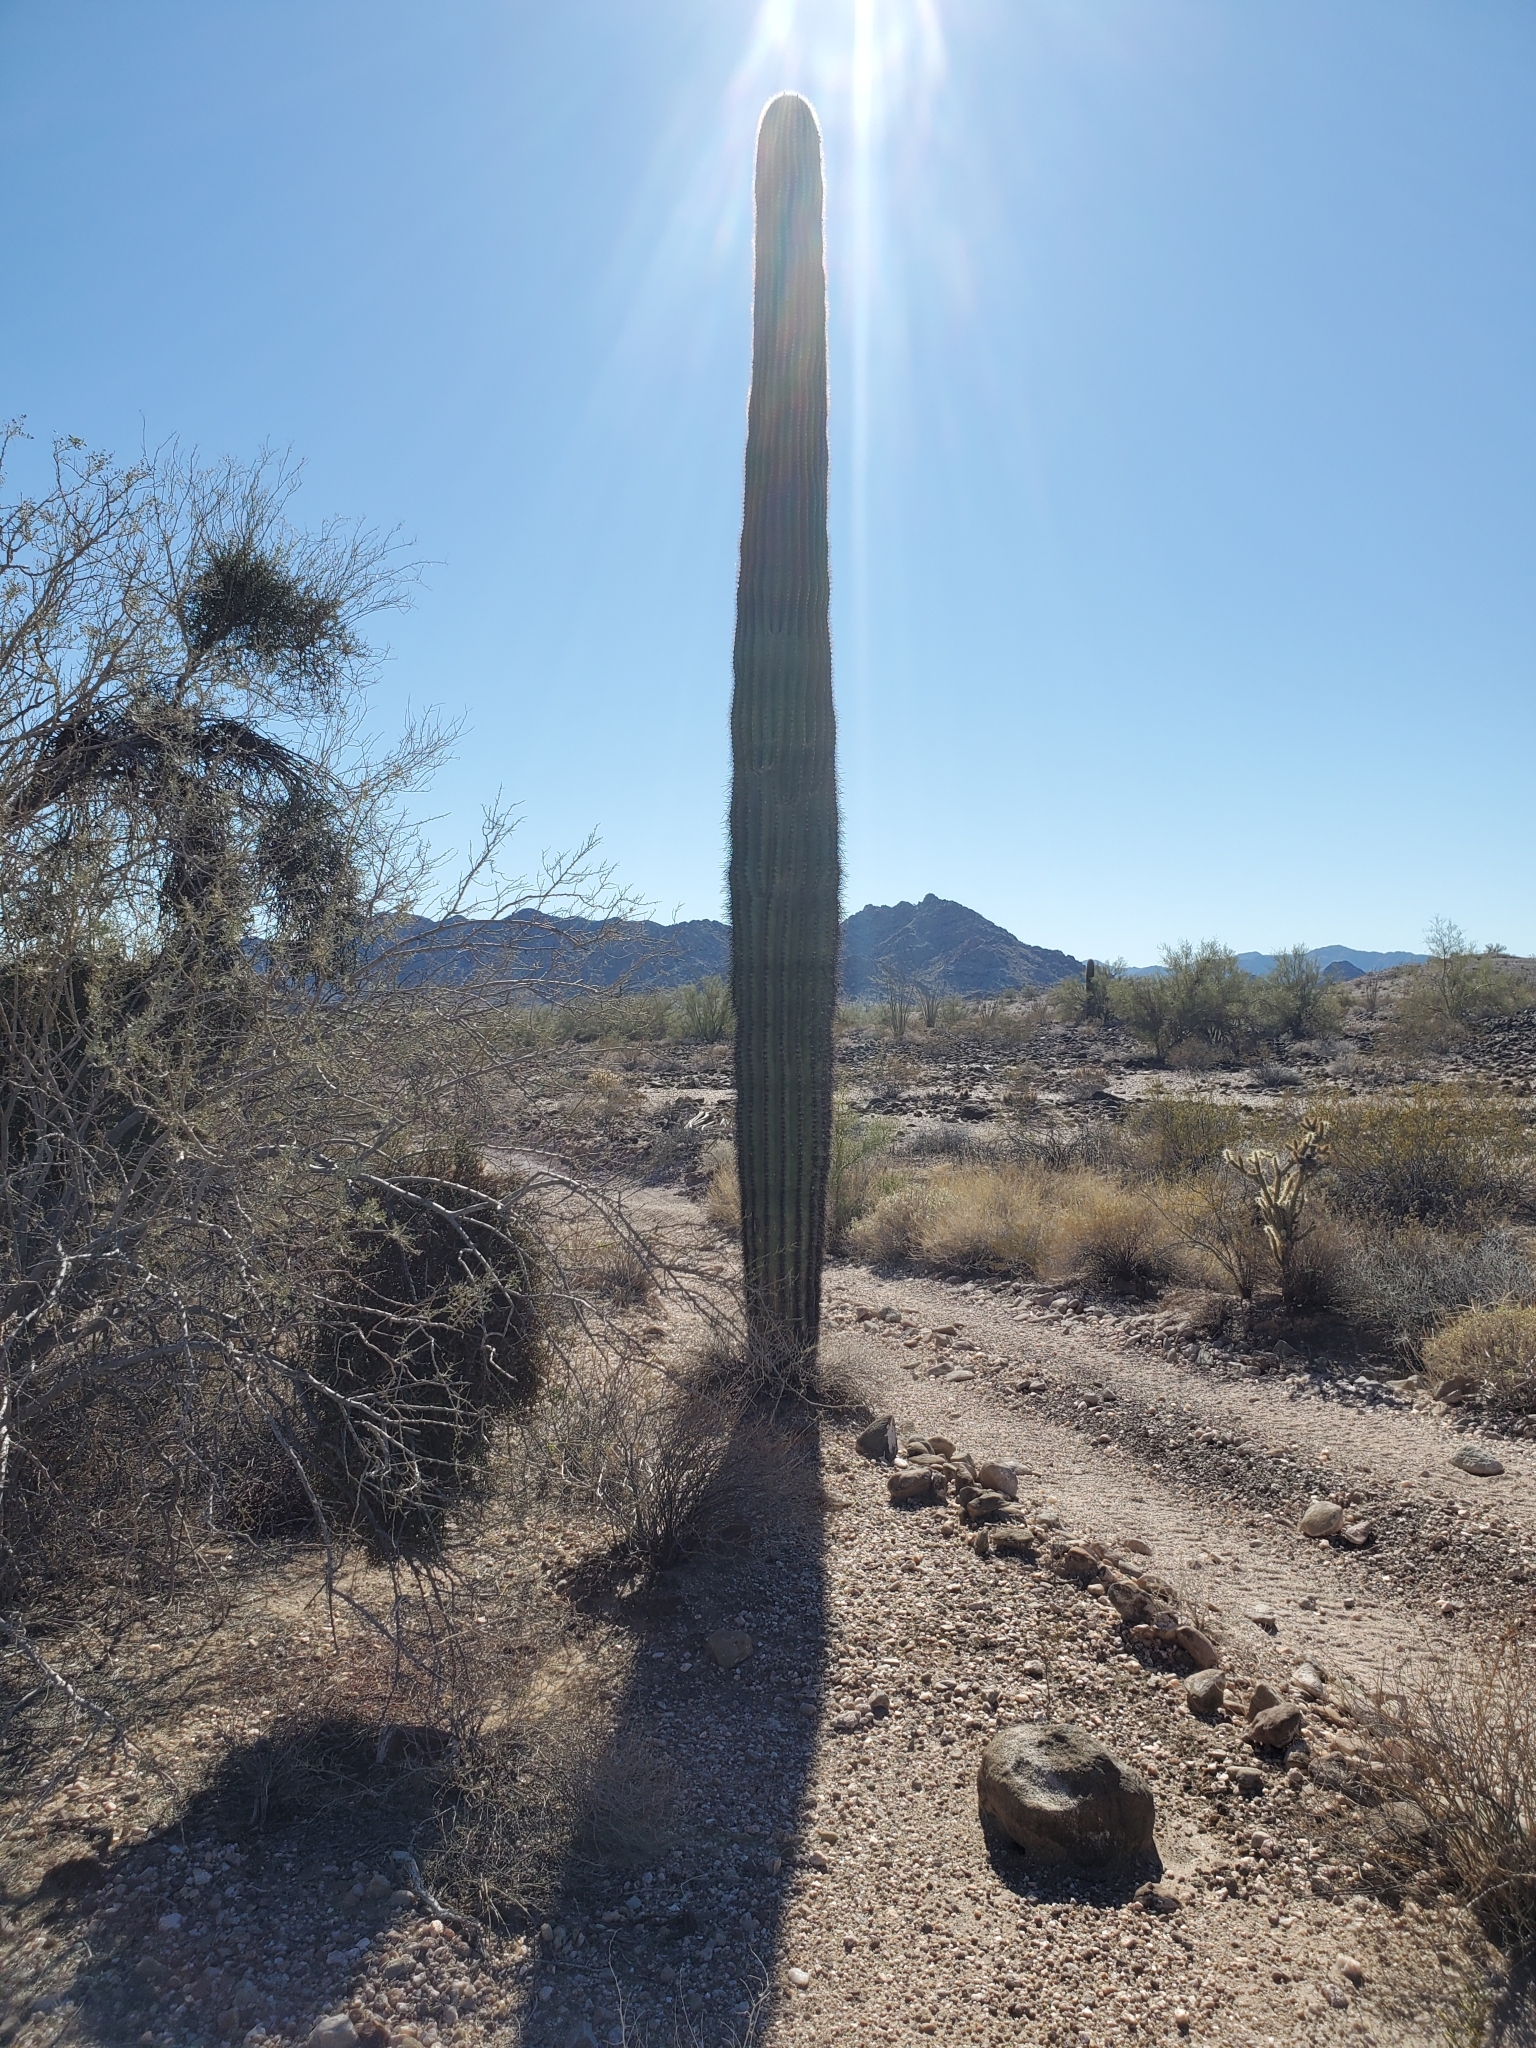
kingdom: Plantae
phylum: Tracheophyta
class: Magnoliopsida
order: Caryophyllales
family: Cactaceae
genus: Carnegiea
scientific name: Carnegiea gigantea
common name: Saguaro
